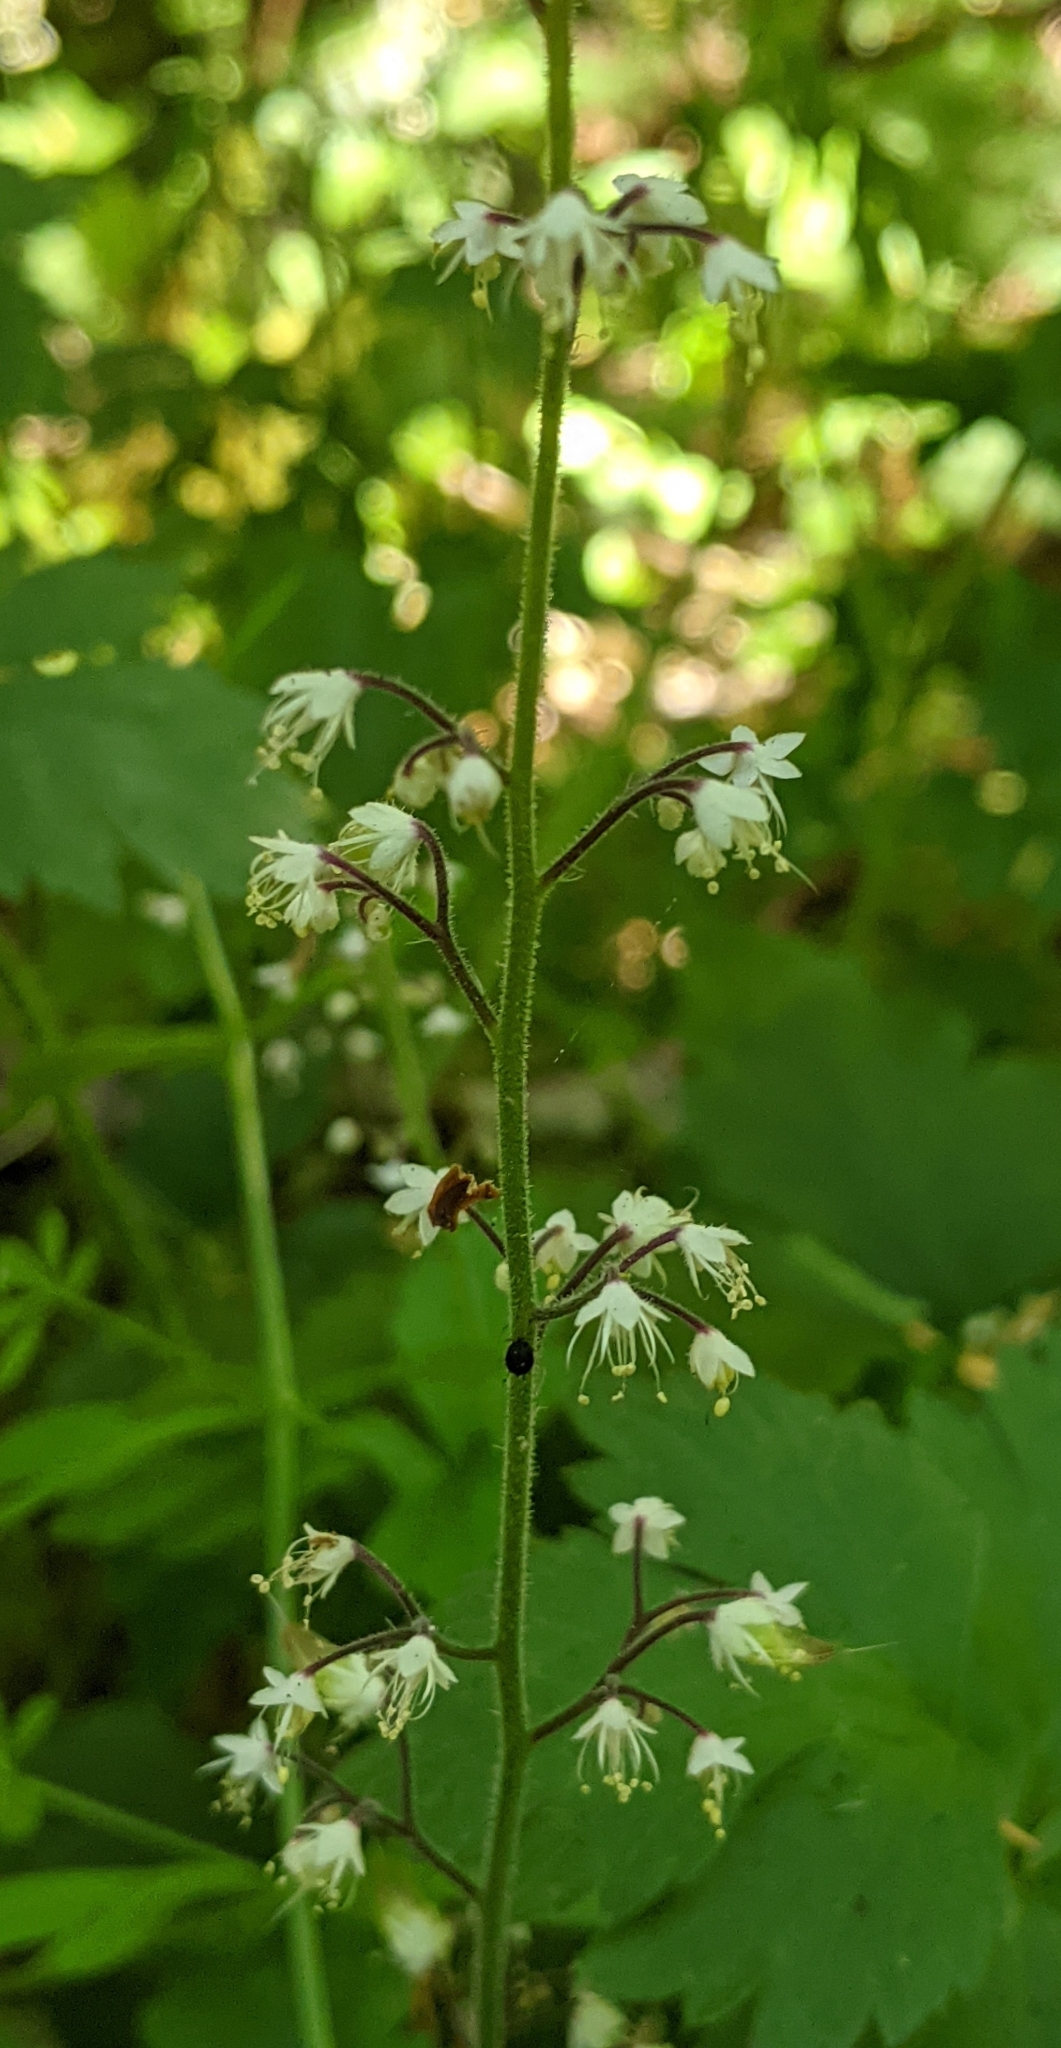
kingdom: Plantae
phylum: Tracheophyta
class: Magnoliopsida
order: Saxifragales
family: Saxifragaceae
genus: Tiarella
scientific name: Tiarella trifoliata
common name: Sugar-scoop
